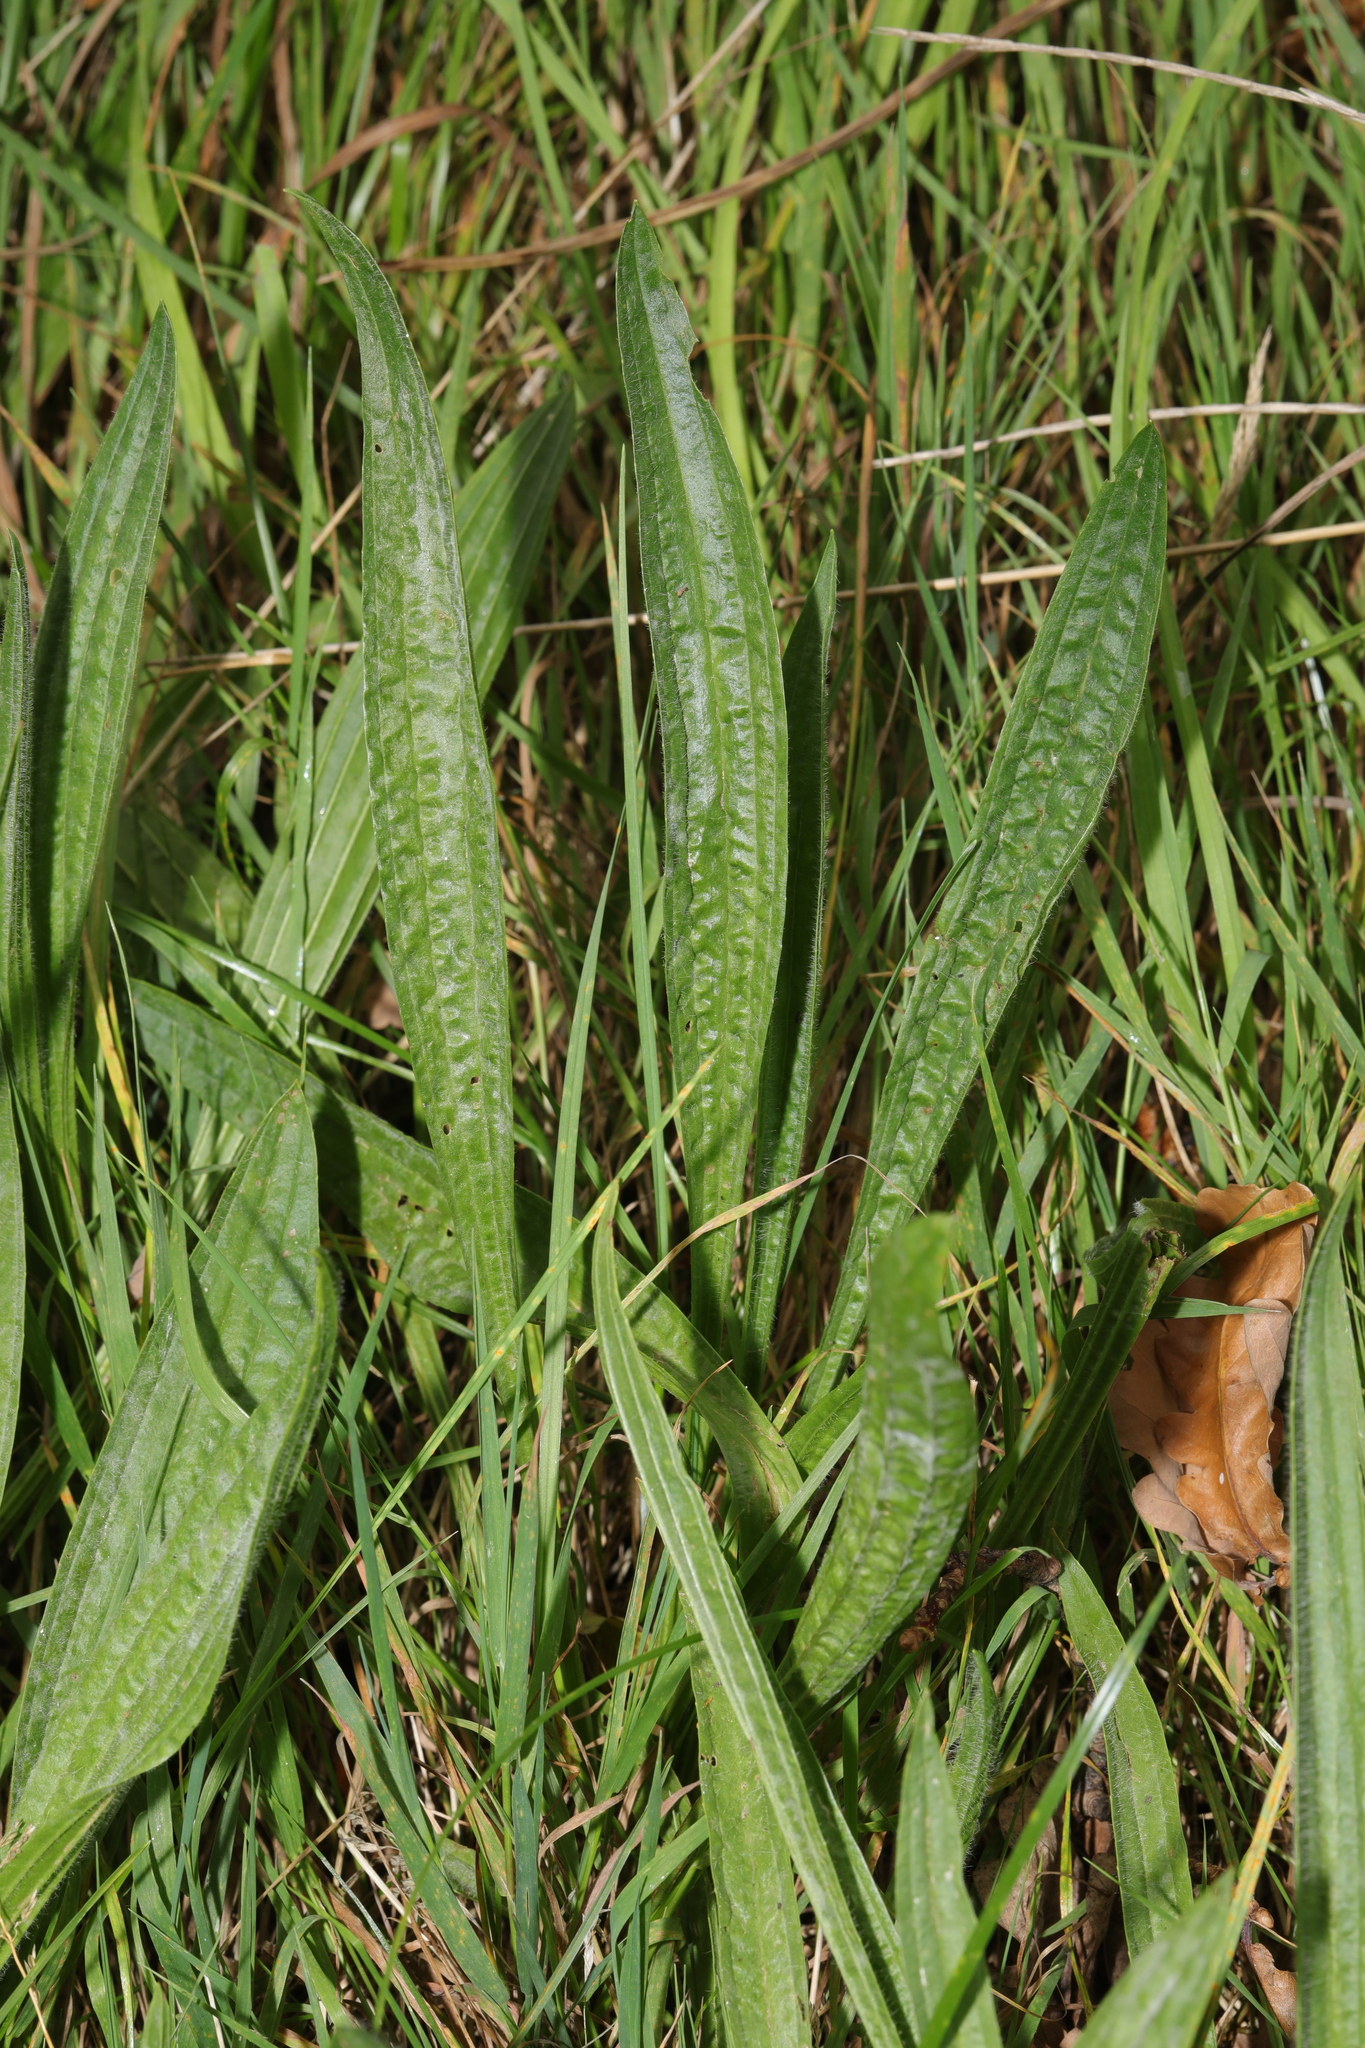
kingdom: Plantae
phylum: Tracheophyta
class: Magnoliopsida
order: Lamiales
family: Plantaginaceae
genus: Plantago
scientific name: Plantago lanceolata
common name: Ribwort plantain
